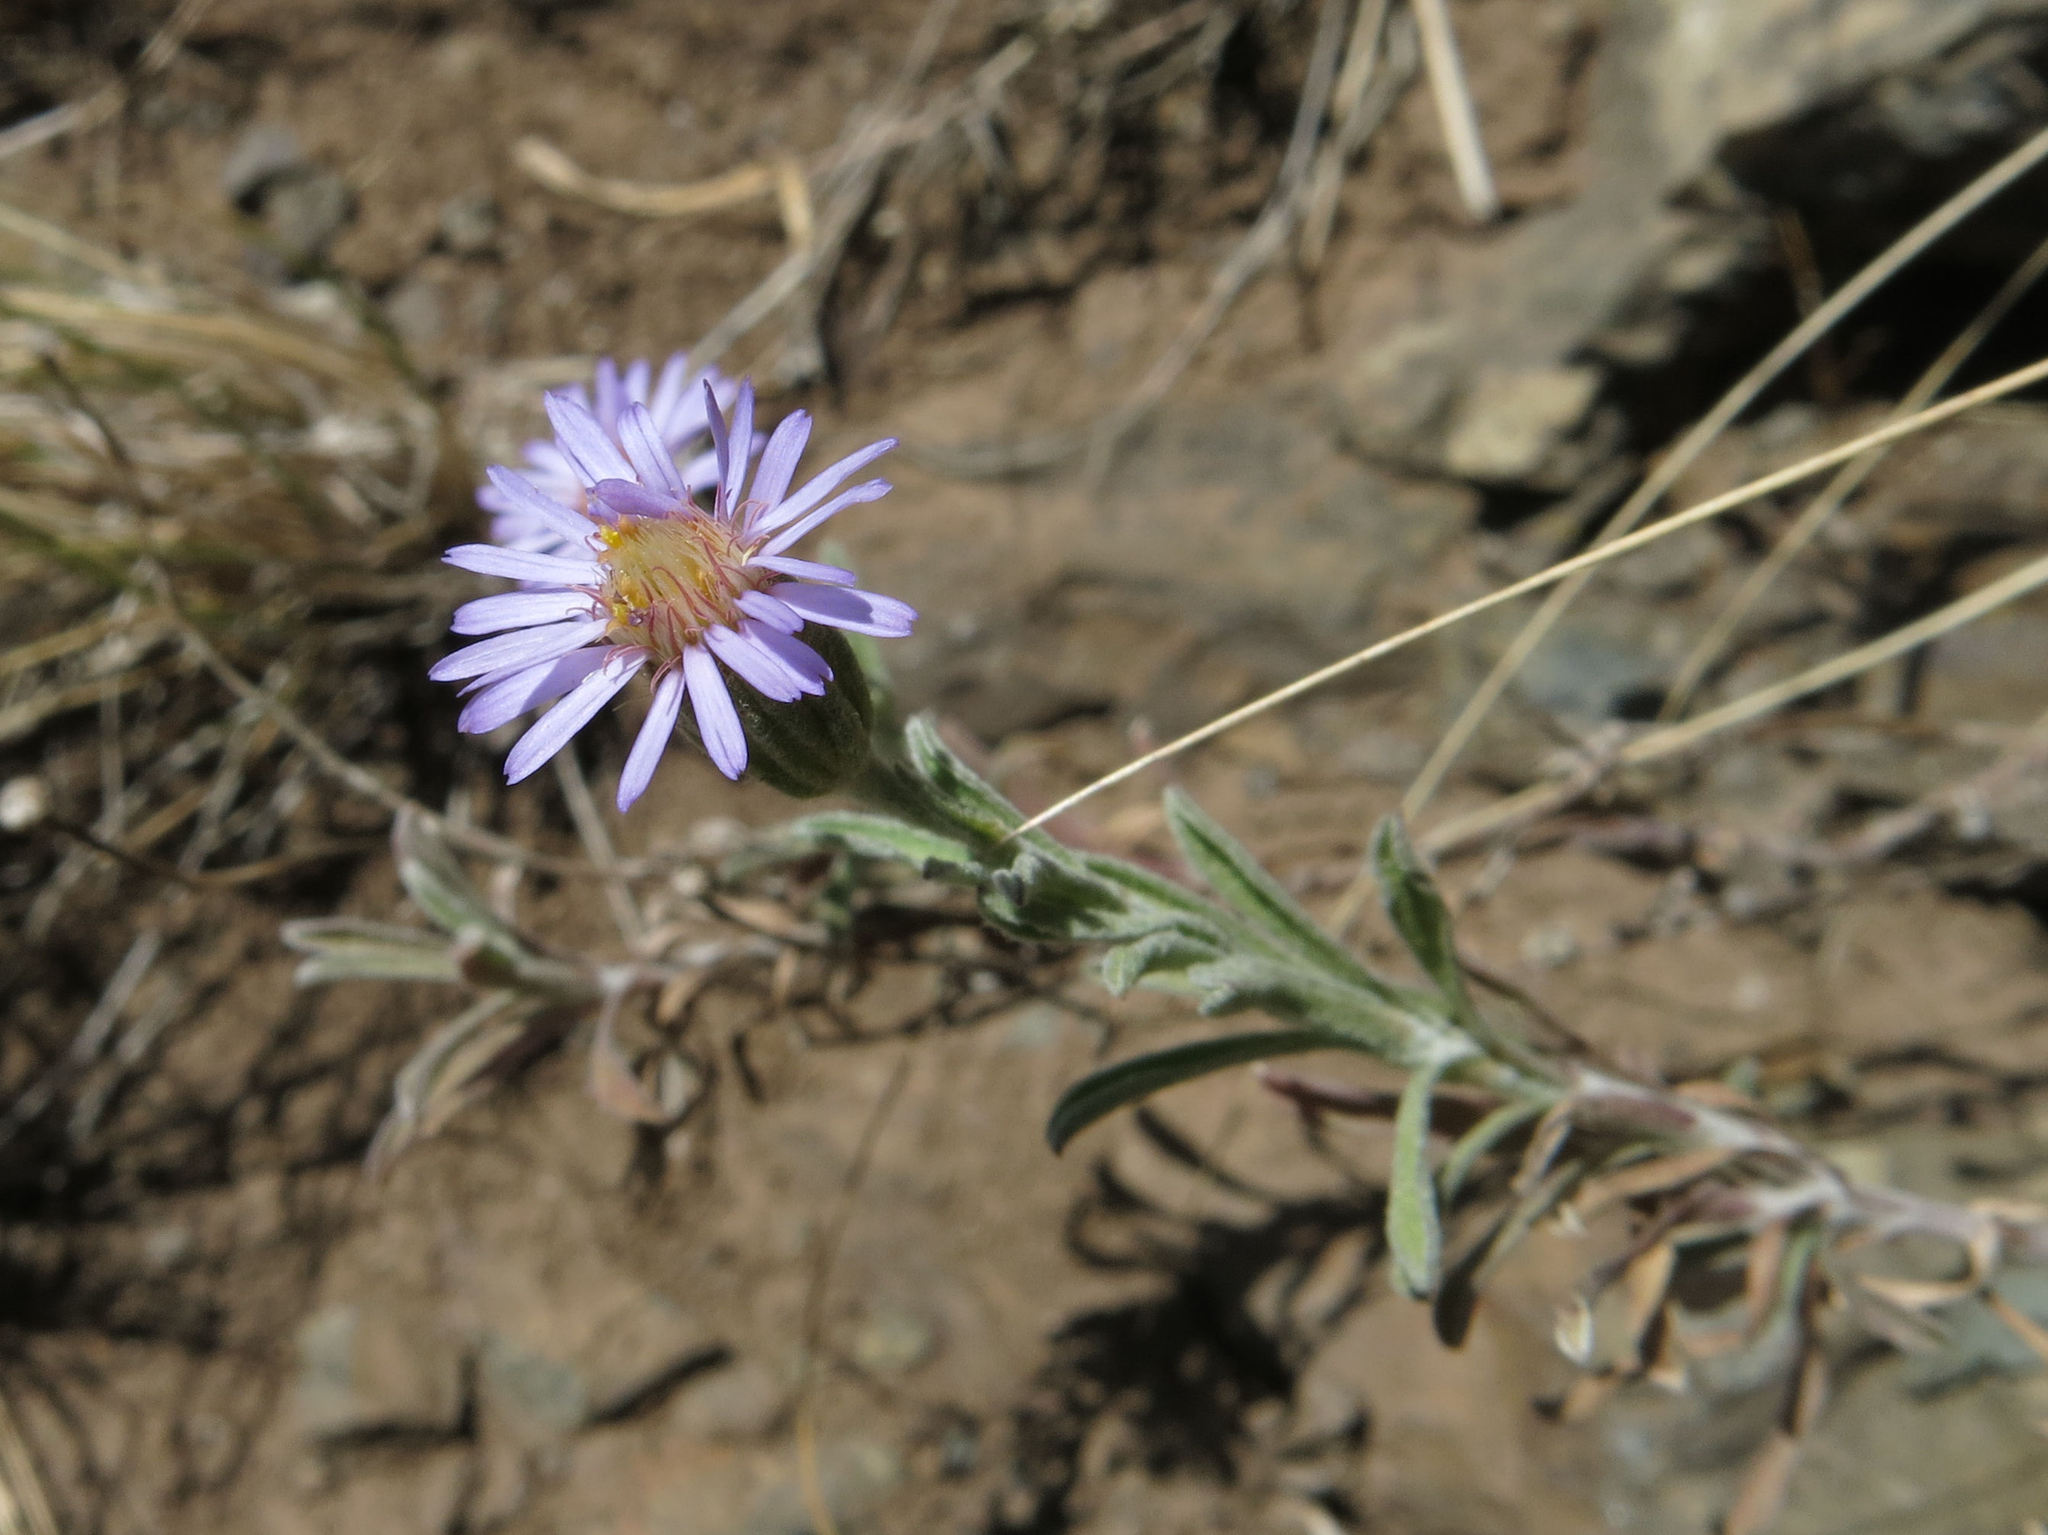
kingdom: Plantae
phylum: Tracheophyta
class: Magnoliopsida
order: Asterales
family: Asteraceae
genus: Vittadinia
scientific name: Vittadinia gracilis
